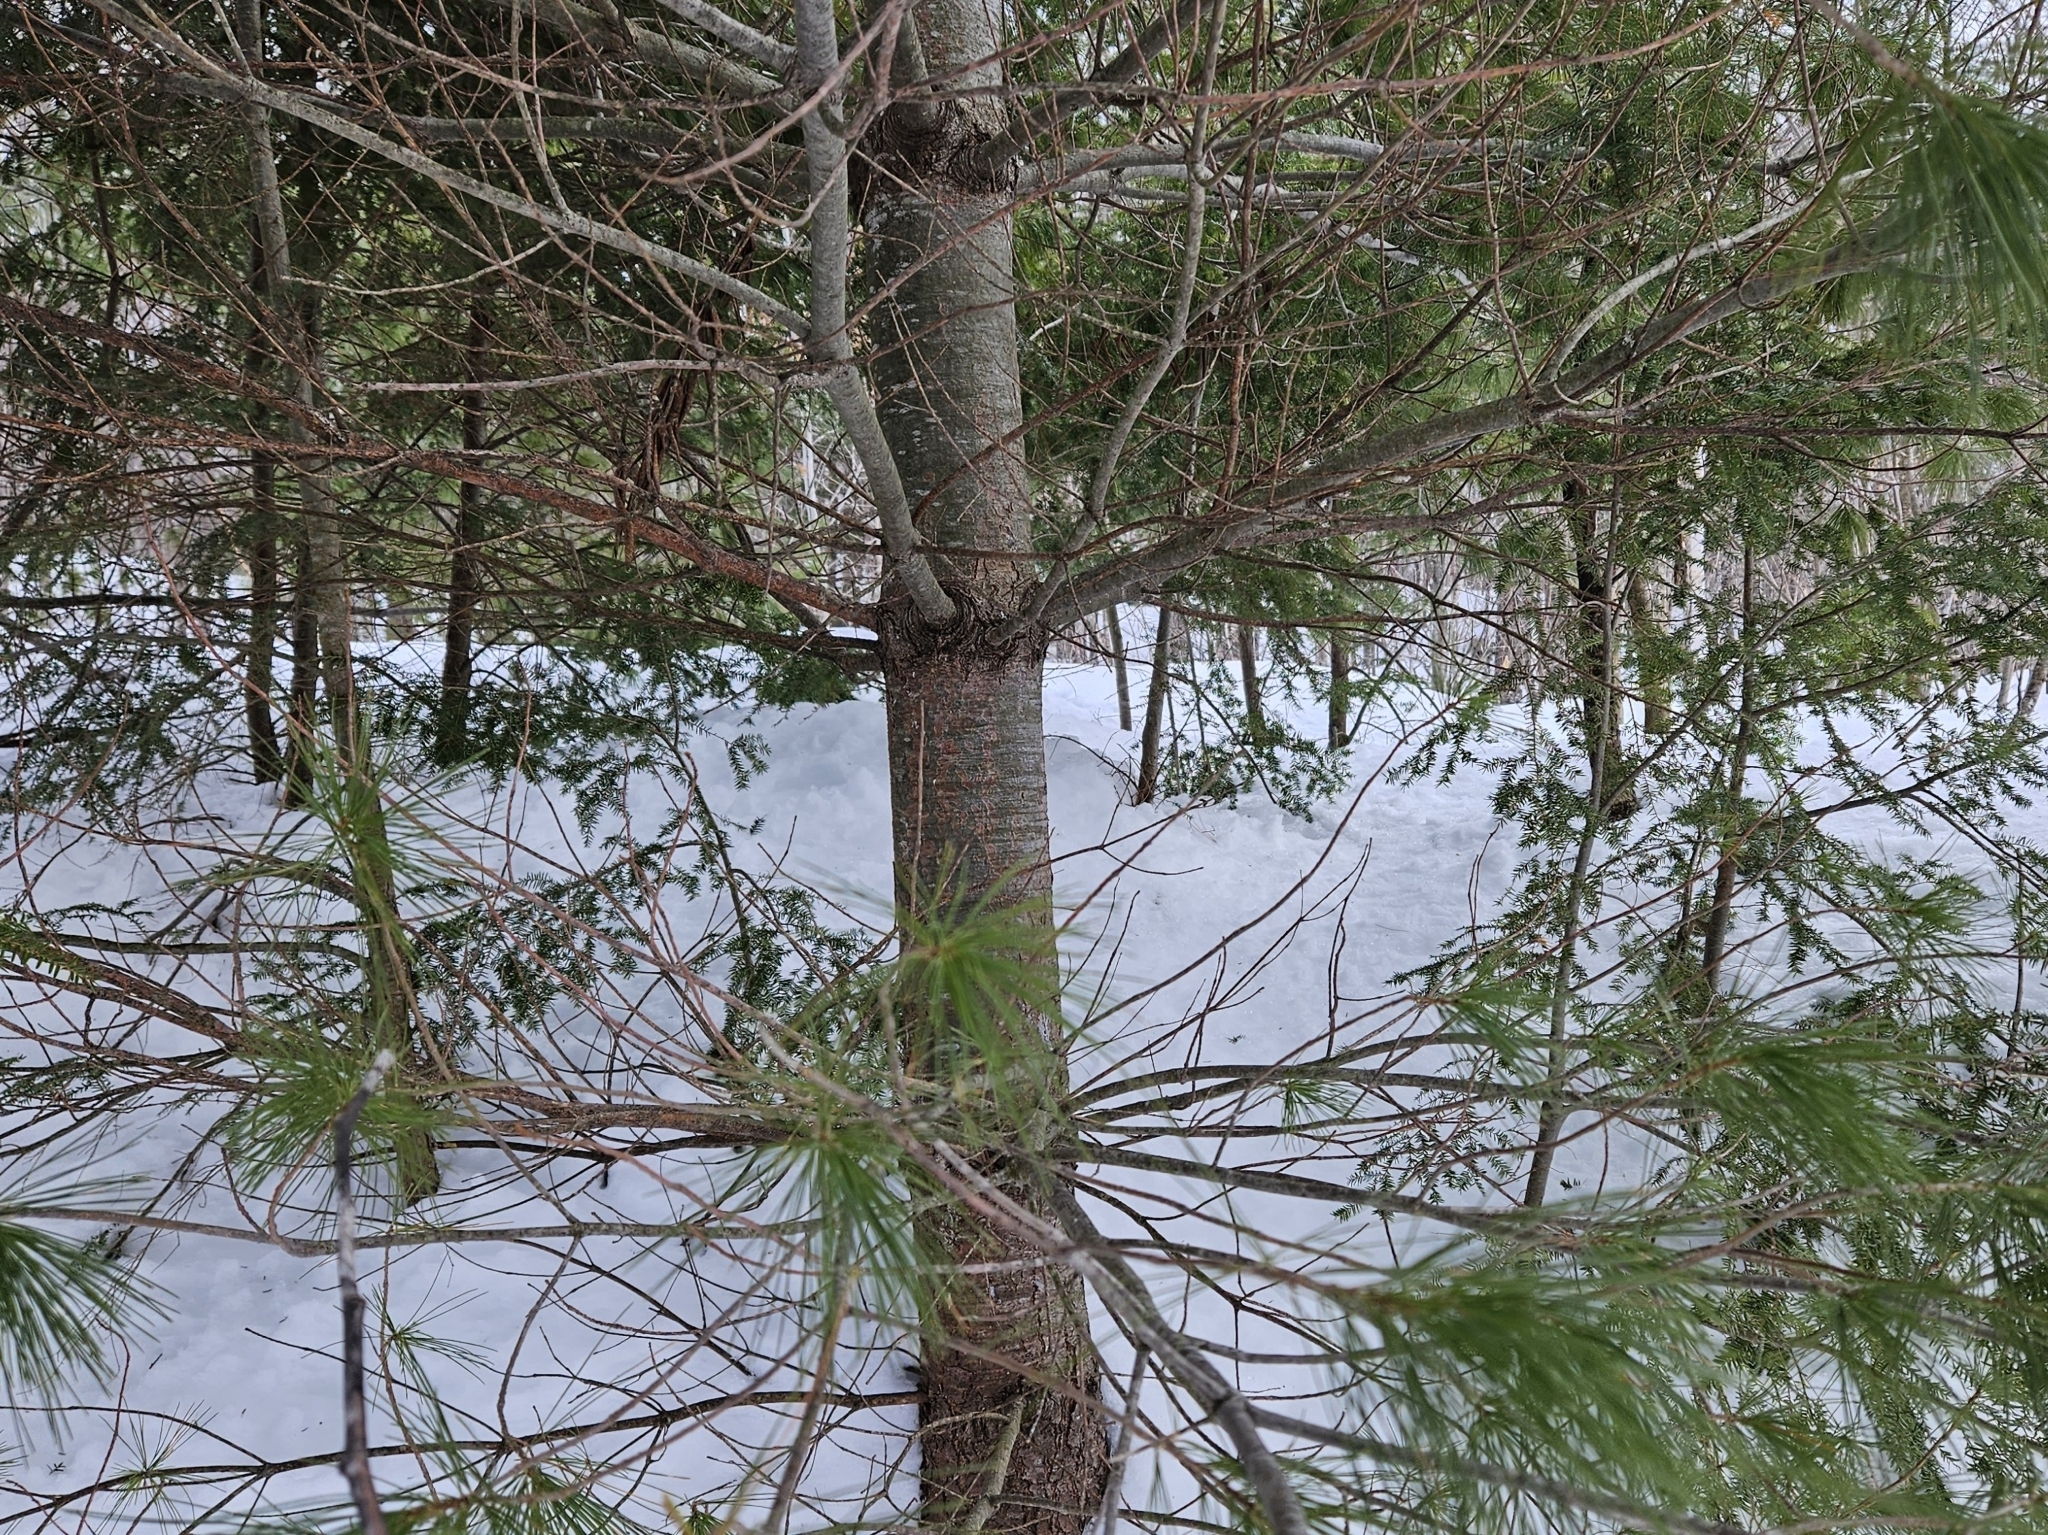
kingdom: Plantae
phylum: Tracheophyta
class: Pinopsida
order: Pinales
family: Pinaceae
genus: Pinus
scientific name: Pinus strobus
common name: Weymouth pine
